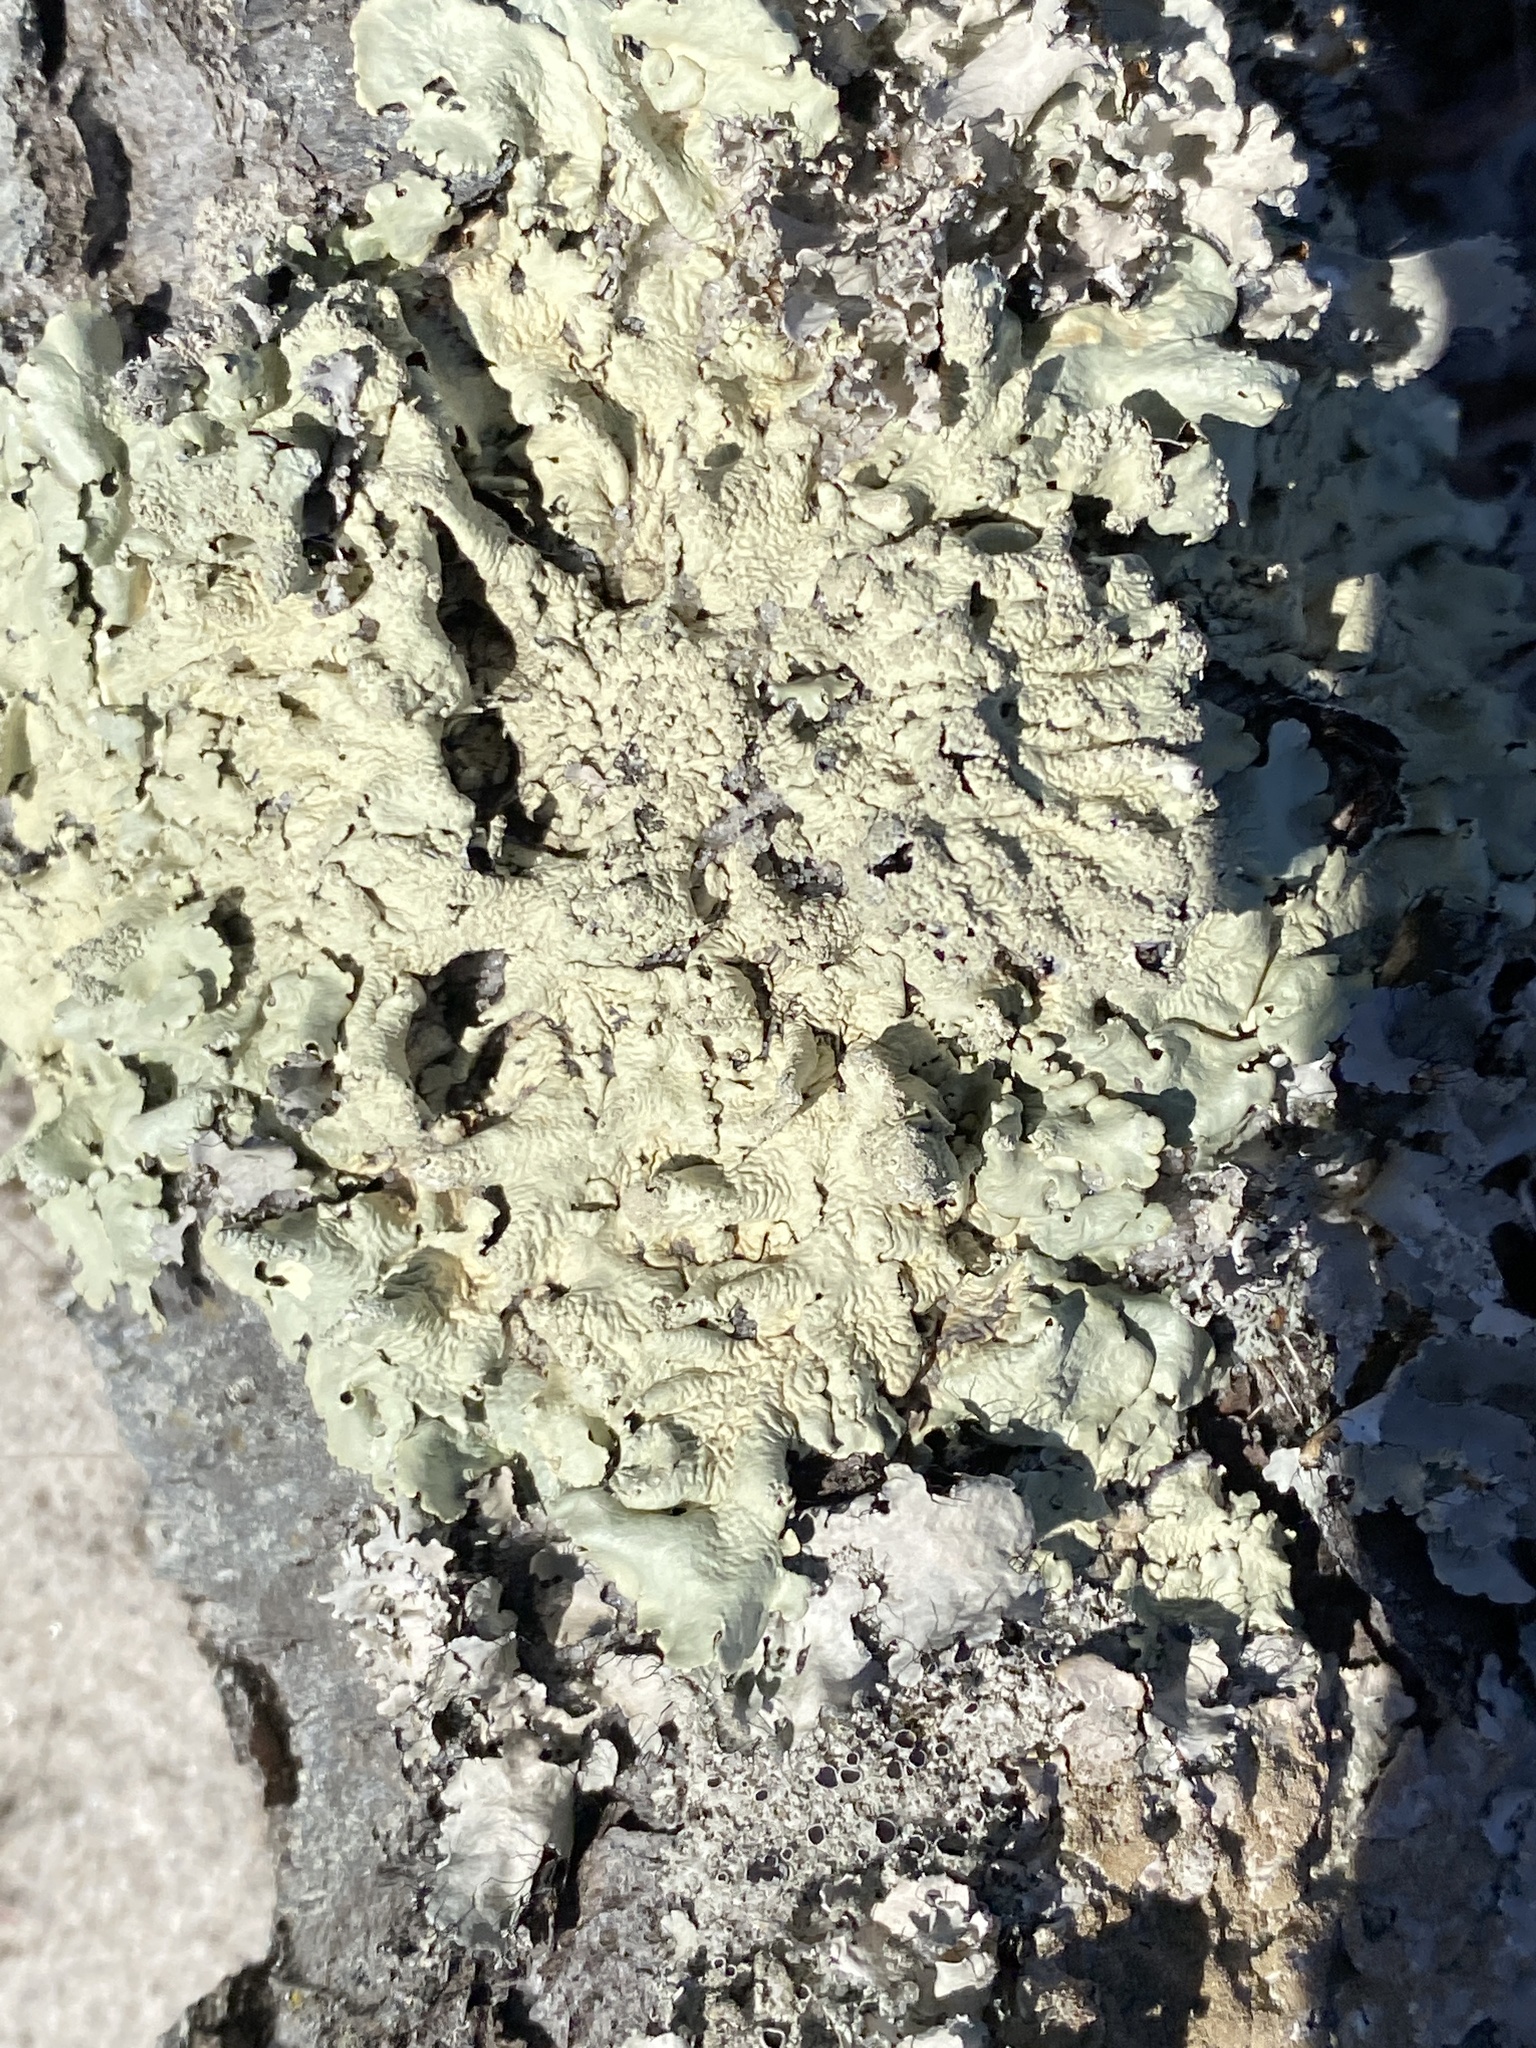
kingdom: Fungi
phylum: Ascomycota
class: Lecanoromycetes
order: Lecanorales
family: Parmeliaceae
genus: Flavoparmelia
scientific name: Flavoparmelia caperata
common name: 40-mile per hour lichen
